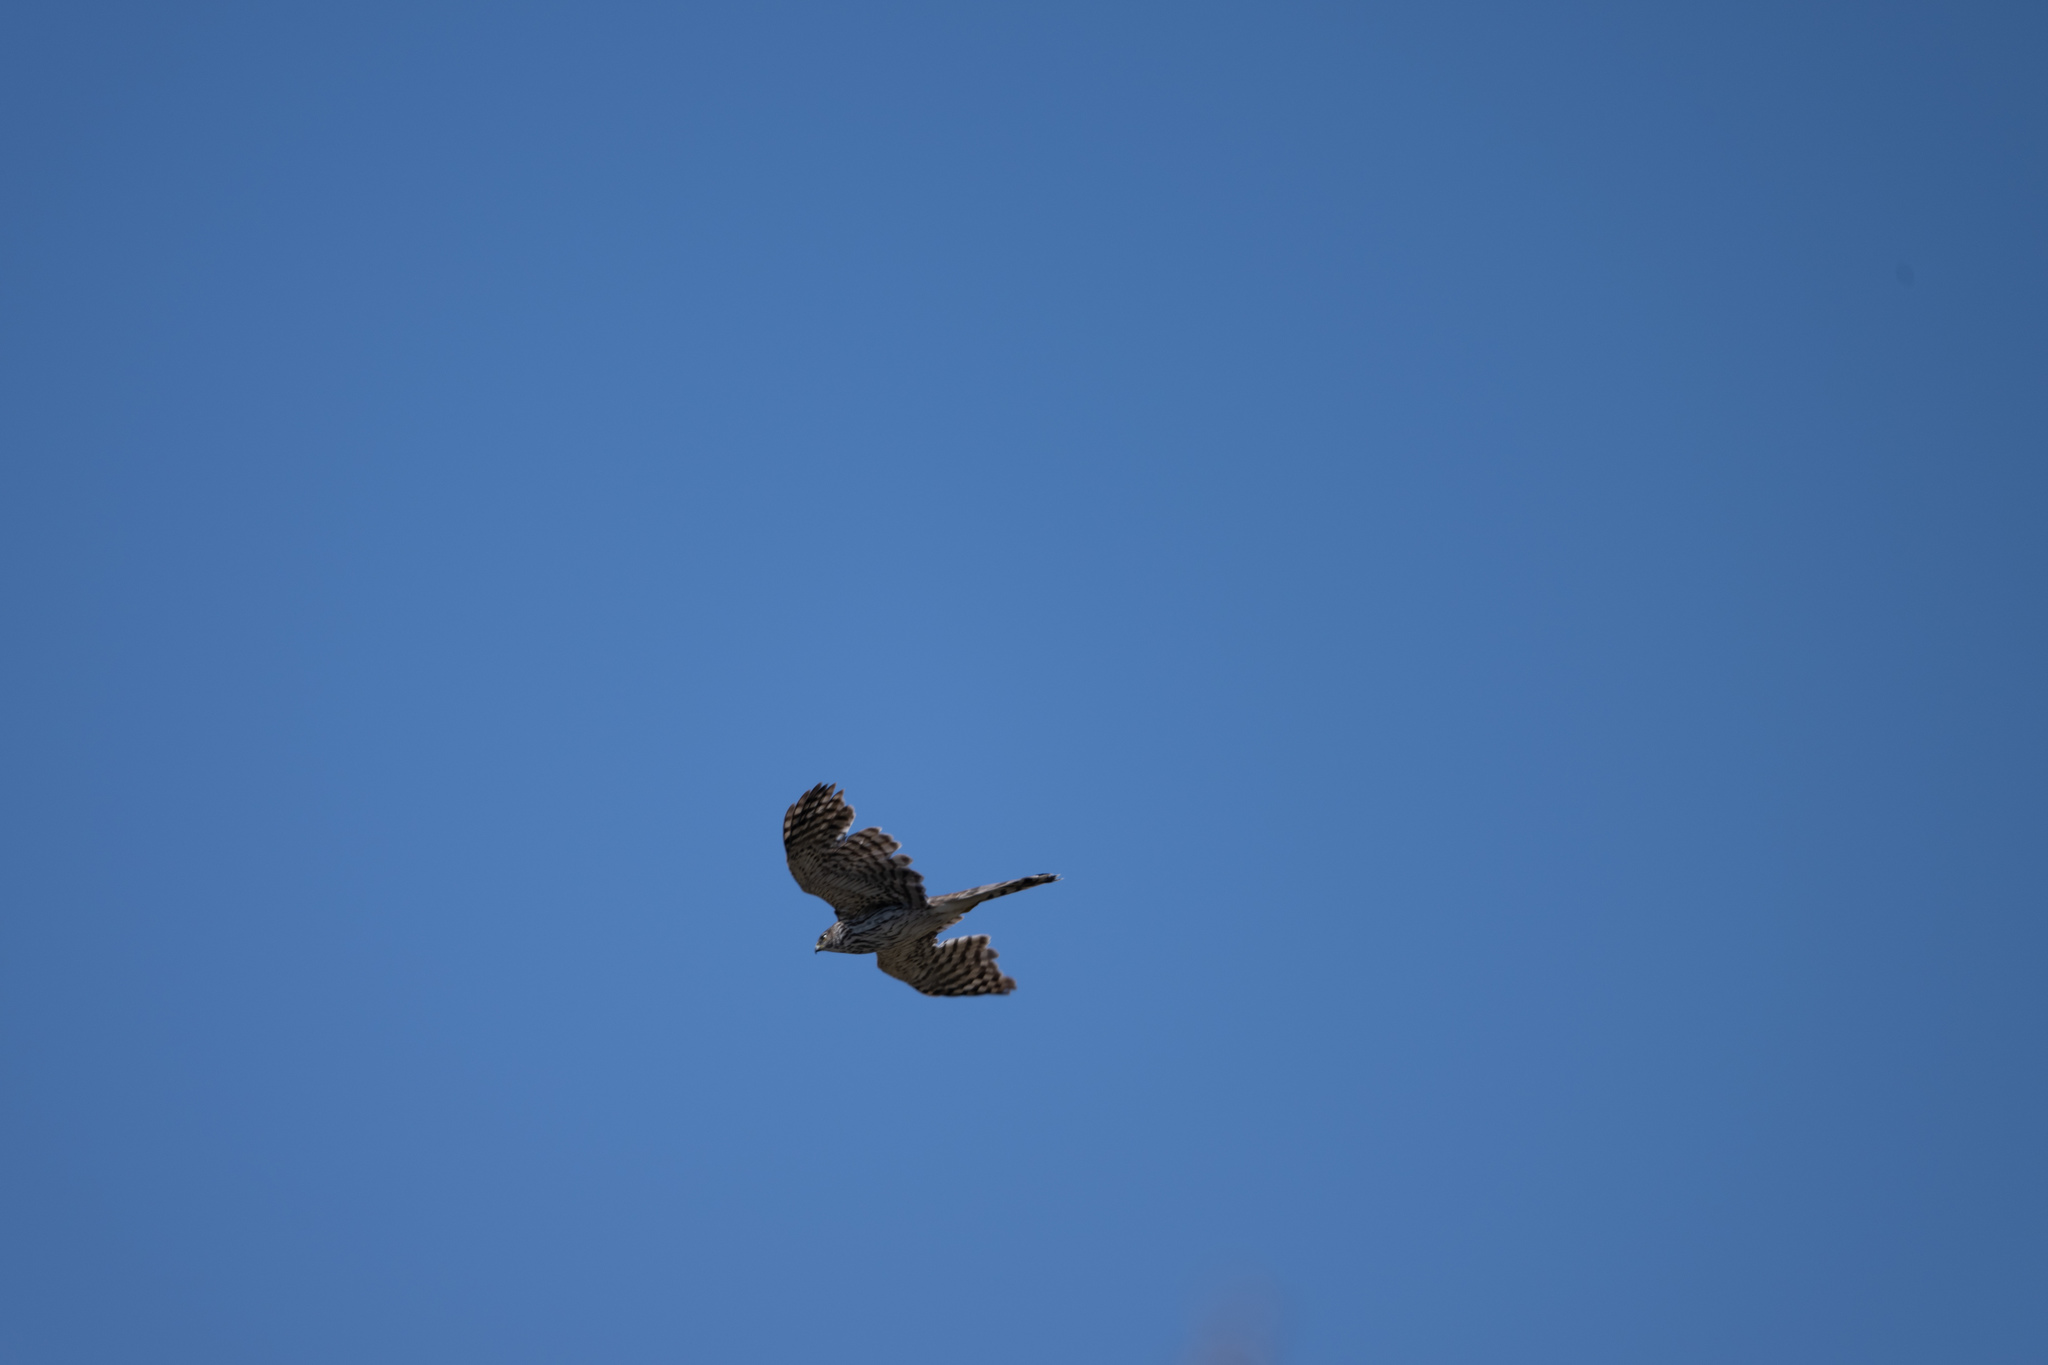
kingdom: Animalia
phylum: Chordata
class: Aves
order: Accipitriformes
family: Accipitridae
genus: Accipiter
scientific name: Accipiter cooperii
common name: Cooper's hawk
